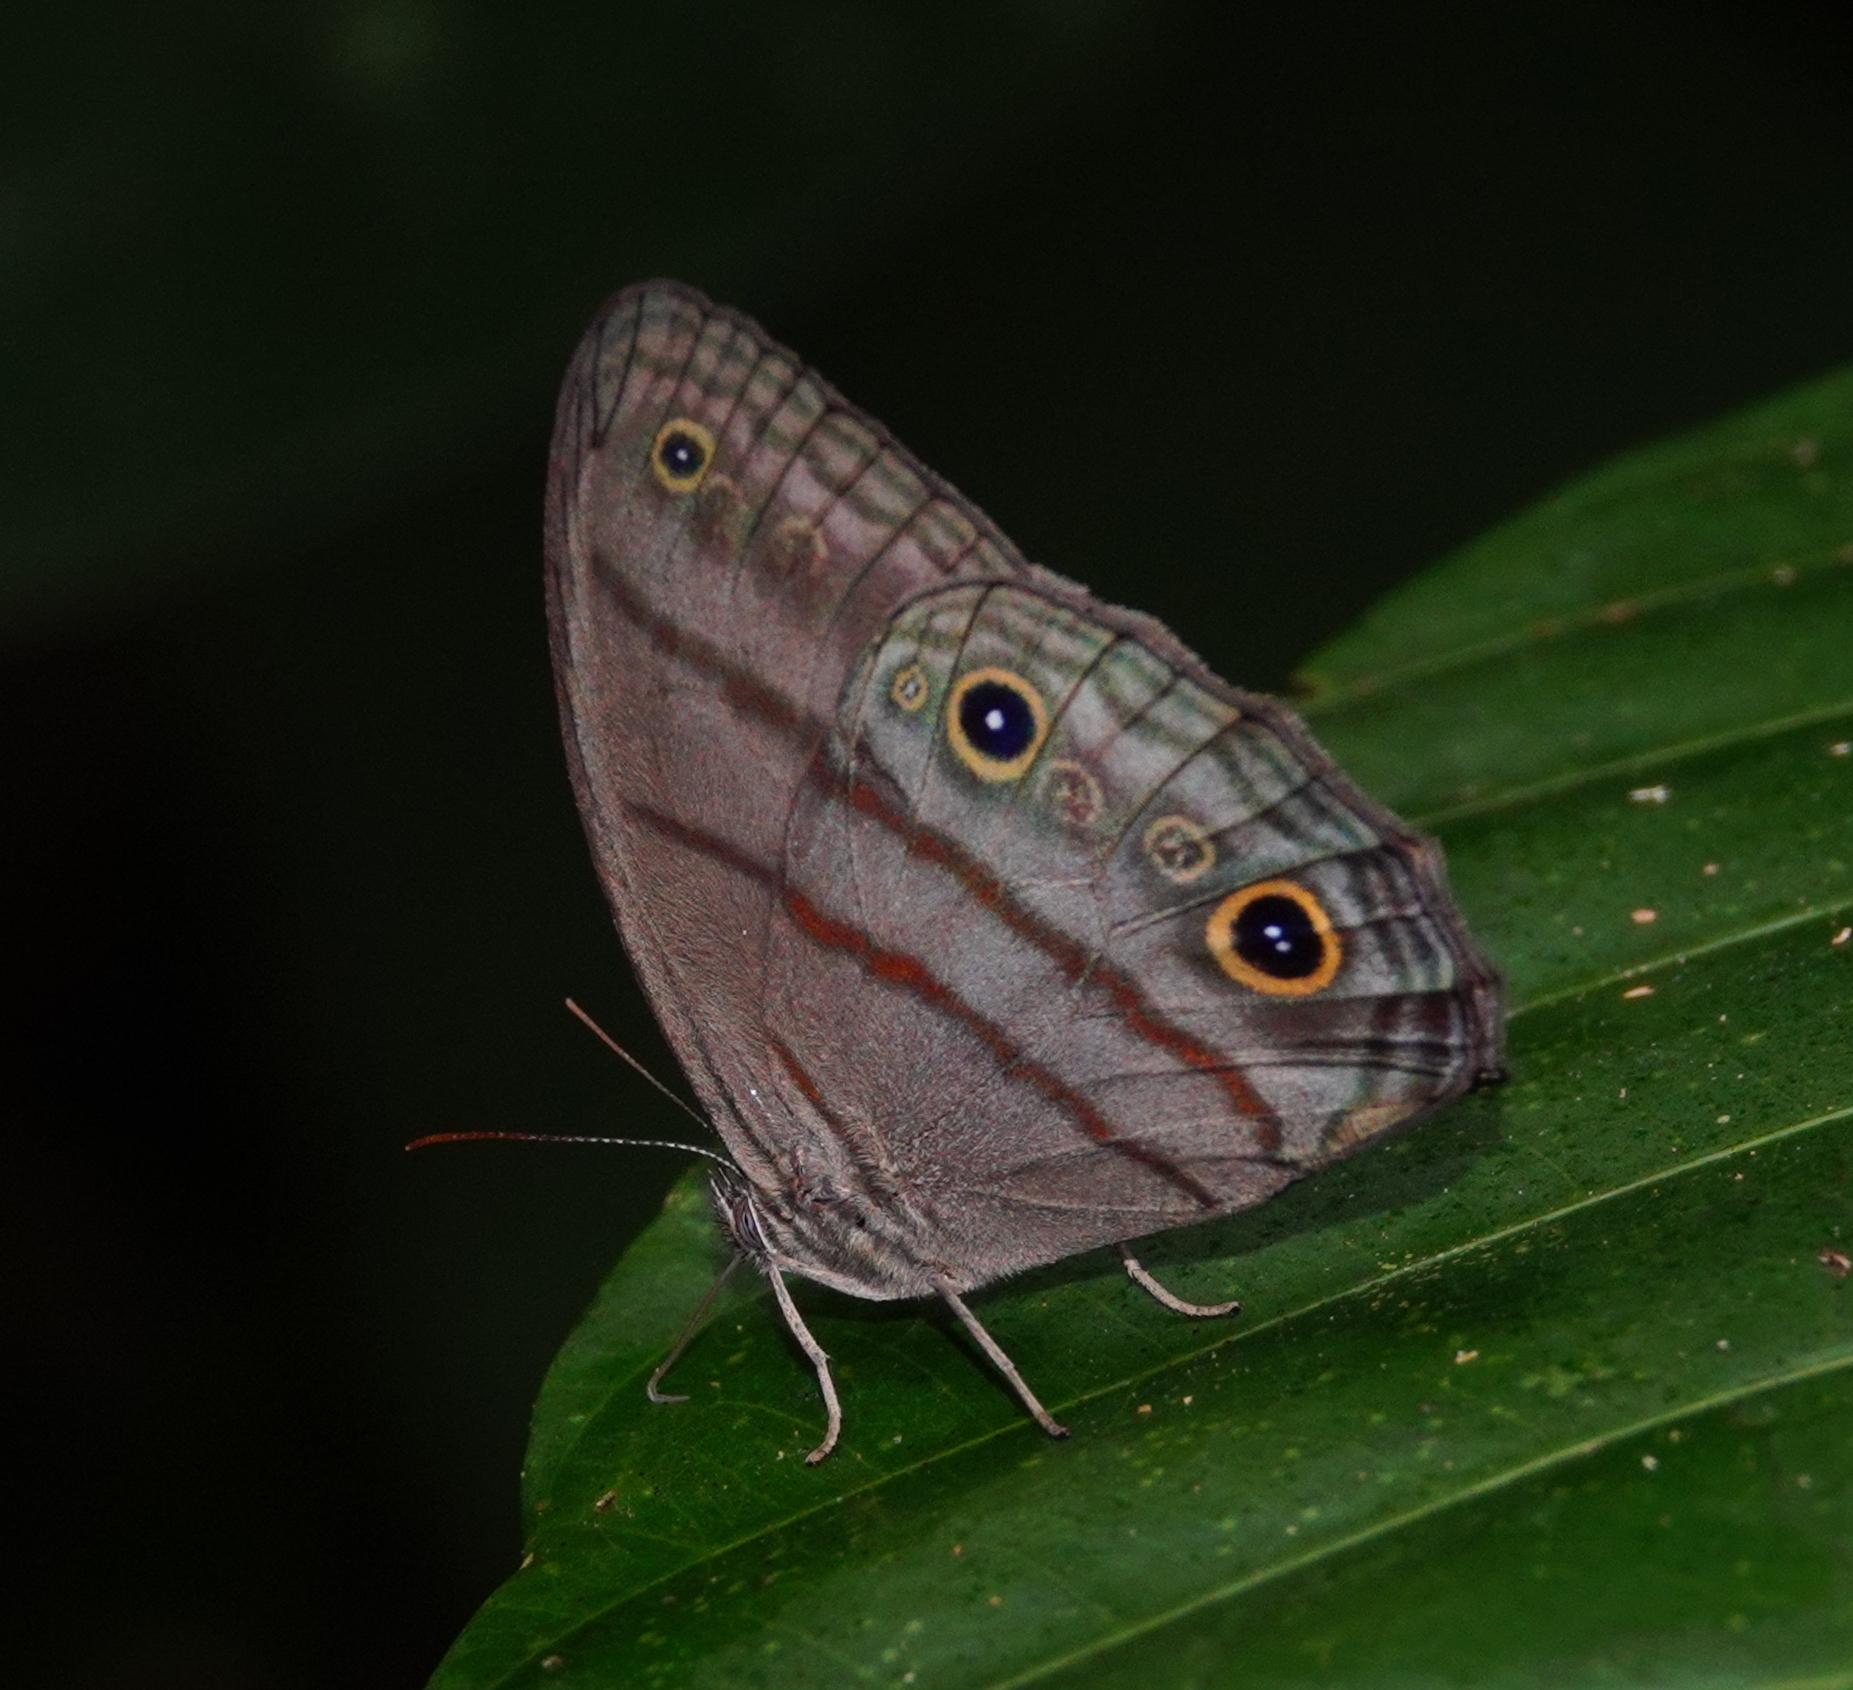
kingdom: Animalia
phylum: Arthropoda
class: Insecta
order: Lepidoptera
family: Nymphalidae
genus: Megeuptychia
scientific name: Megeuptychia antonoe
